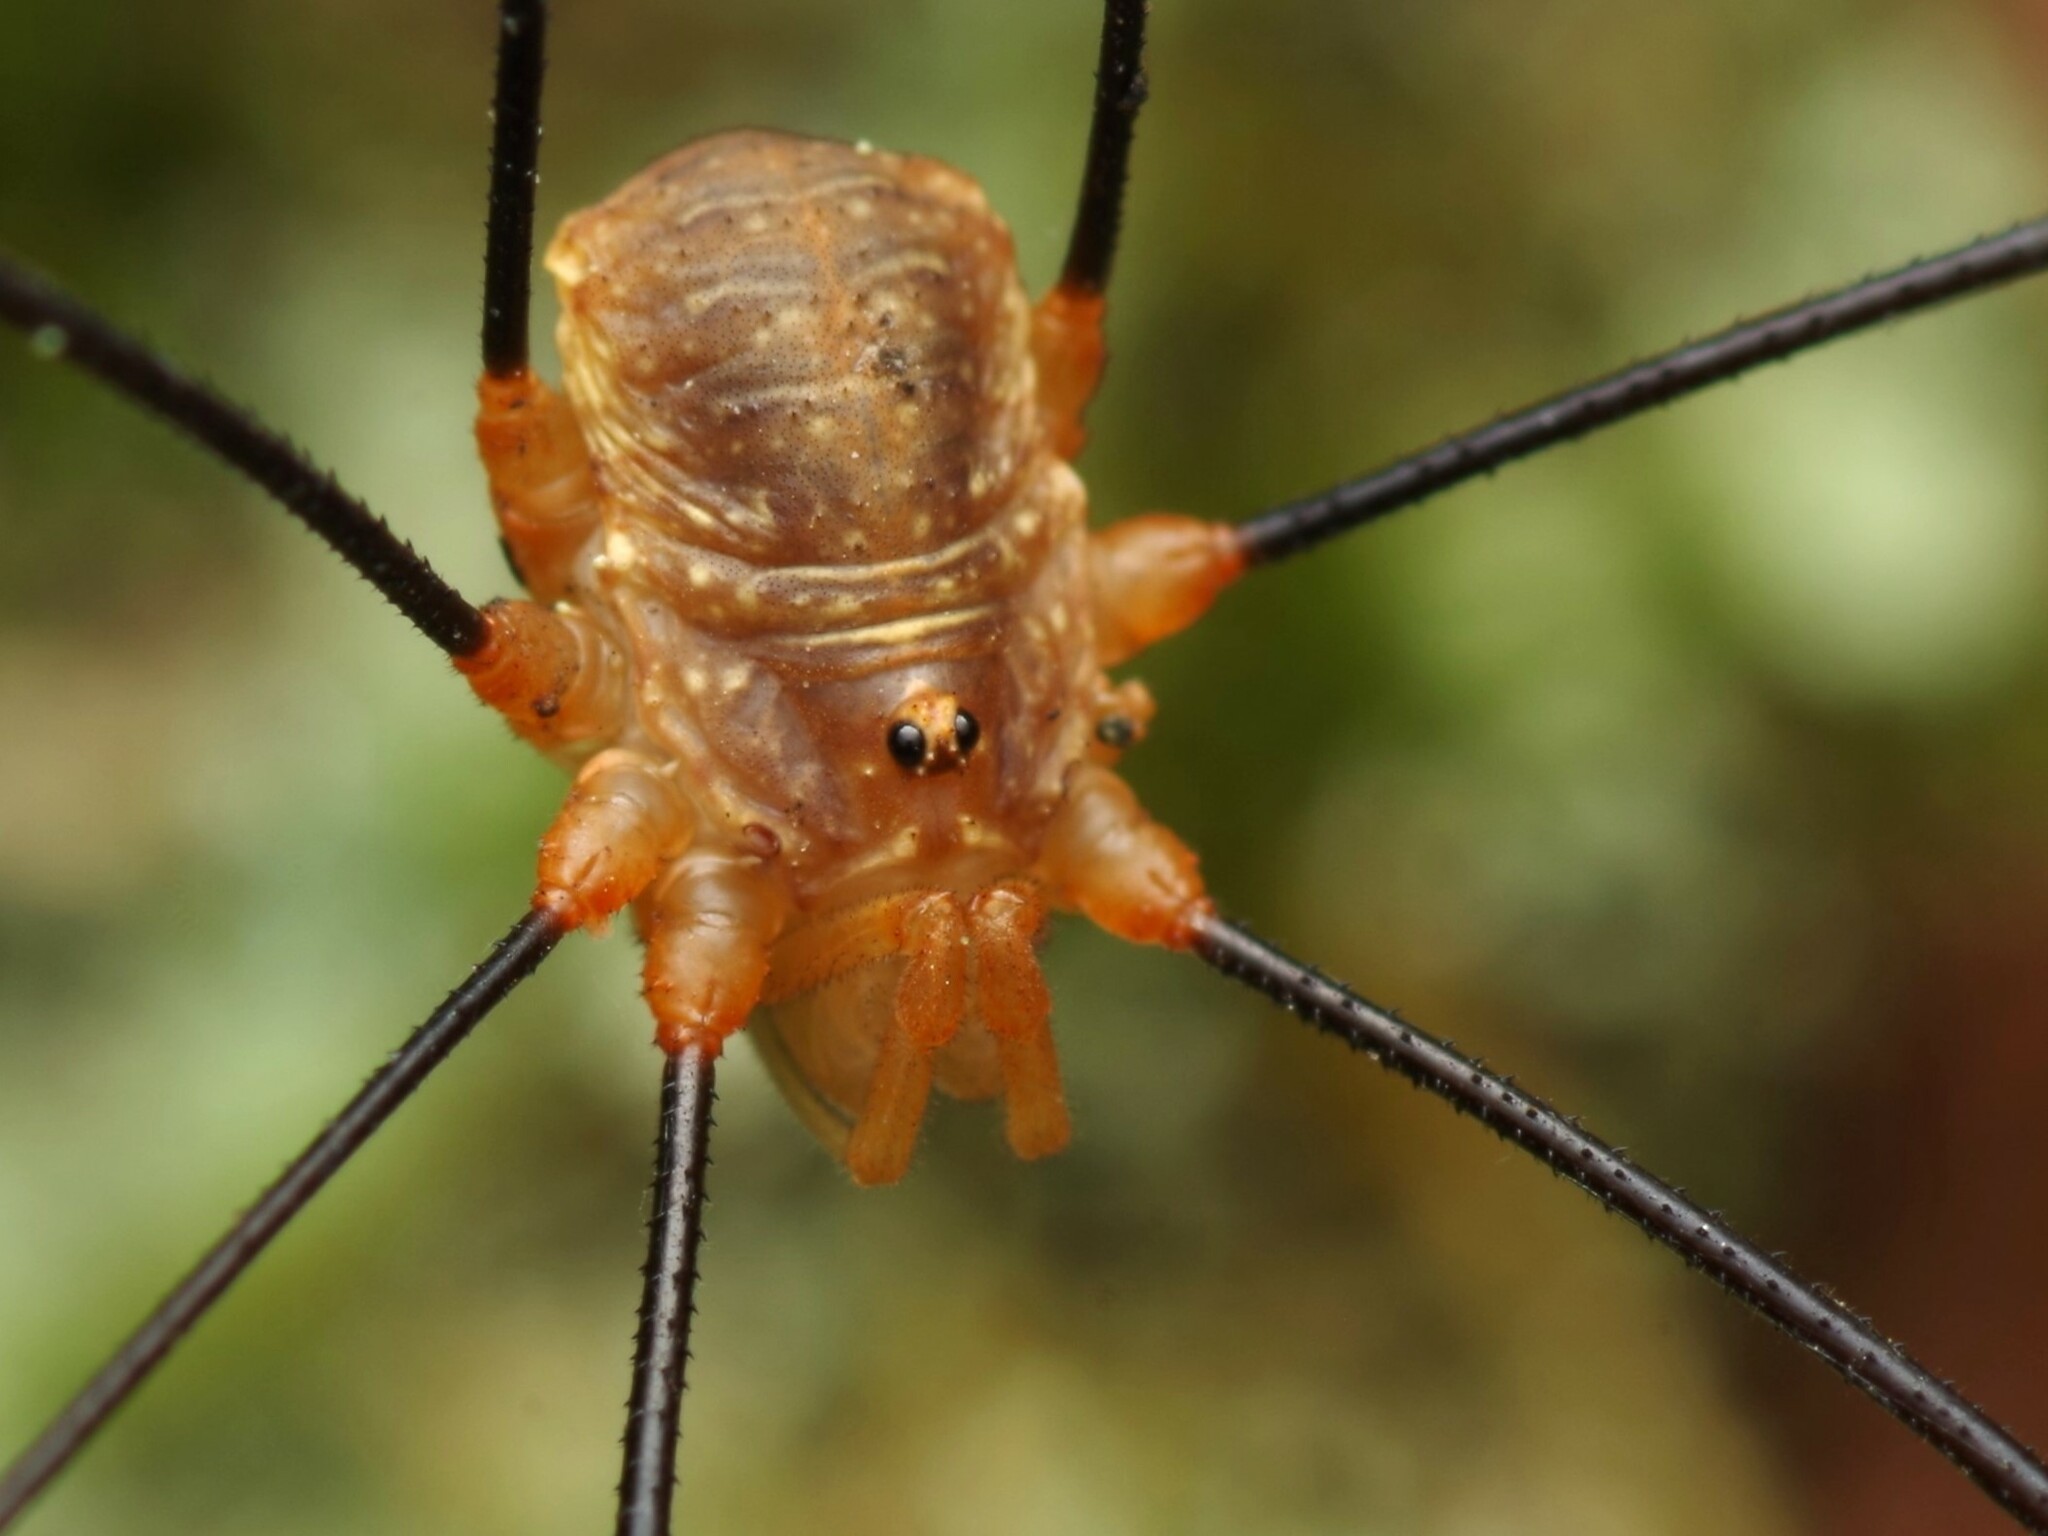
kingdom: Animalia
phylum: Arthropoda
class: Arachnida
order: Opiliones
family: Phalangiidae
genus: Opilio
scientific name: Opilio canestrinii
